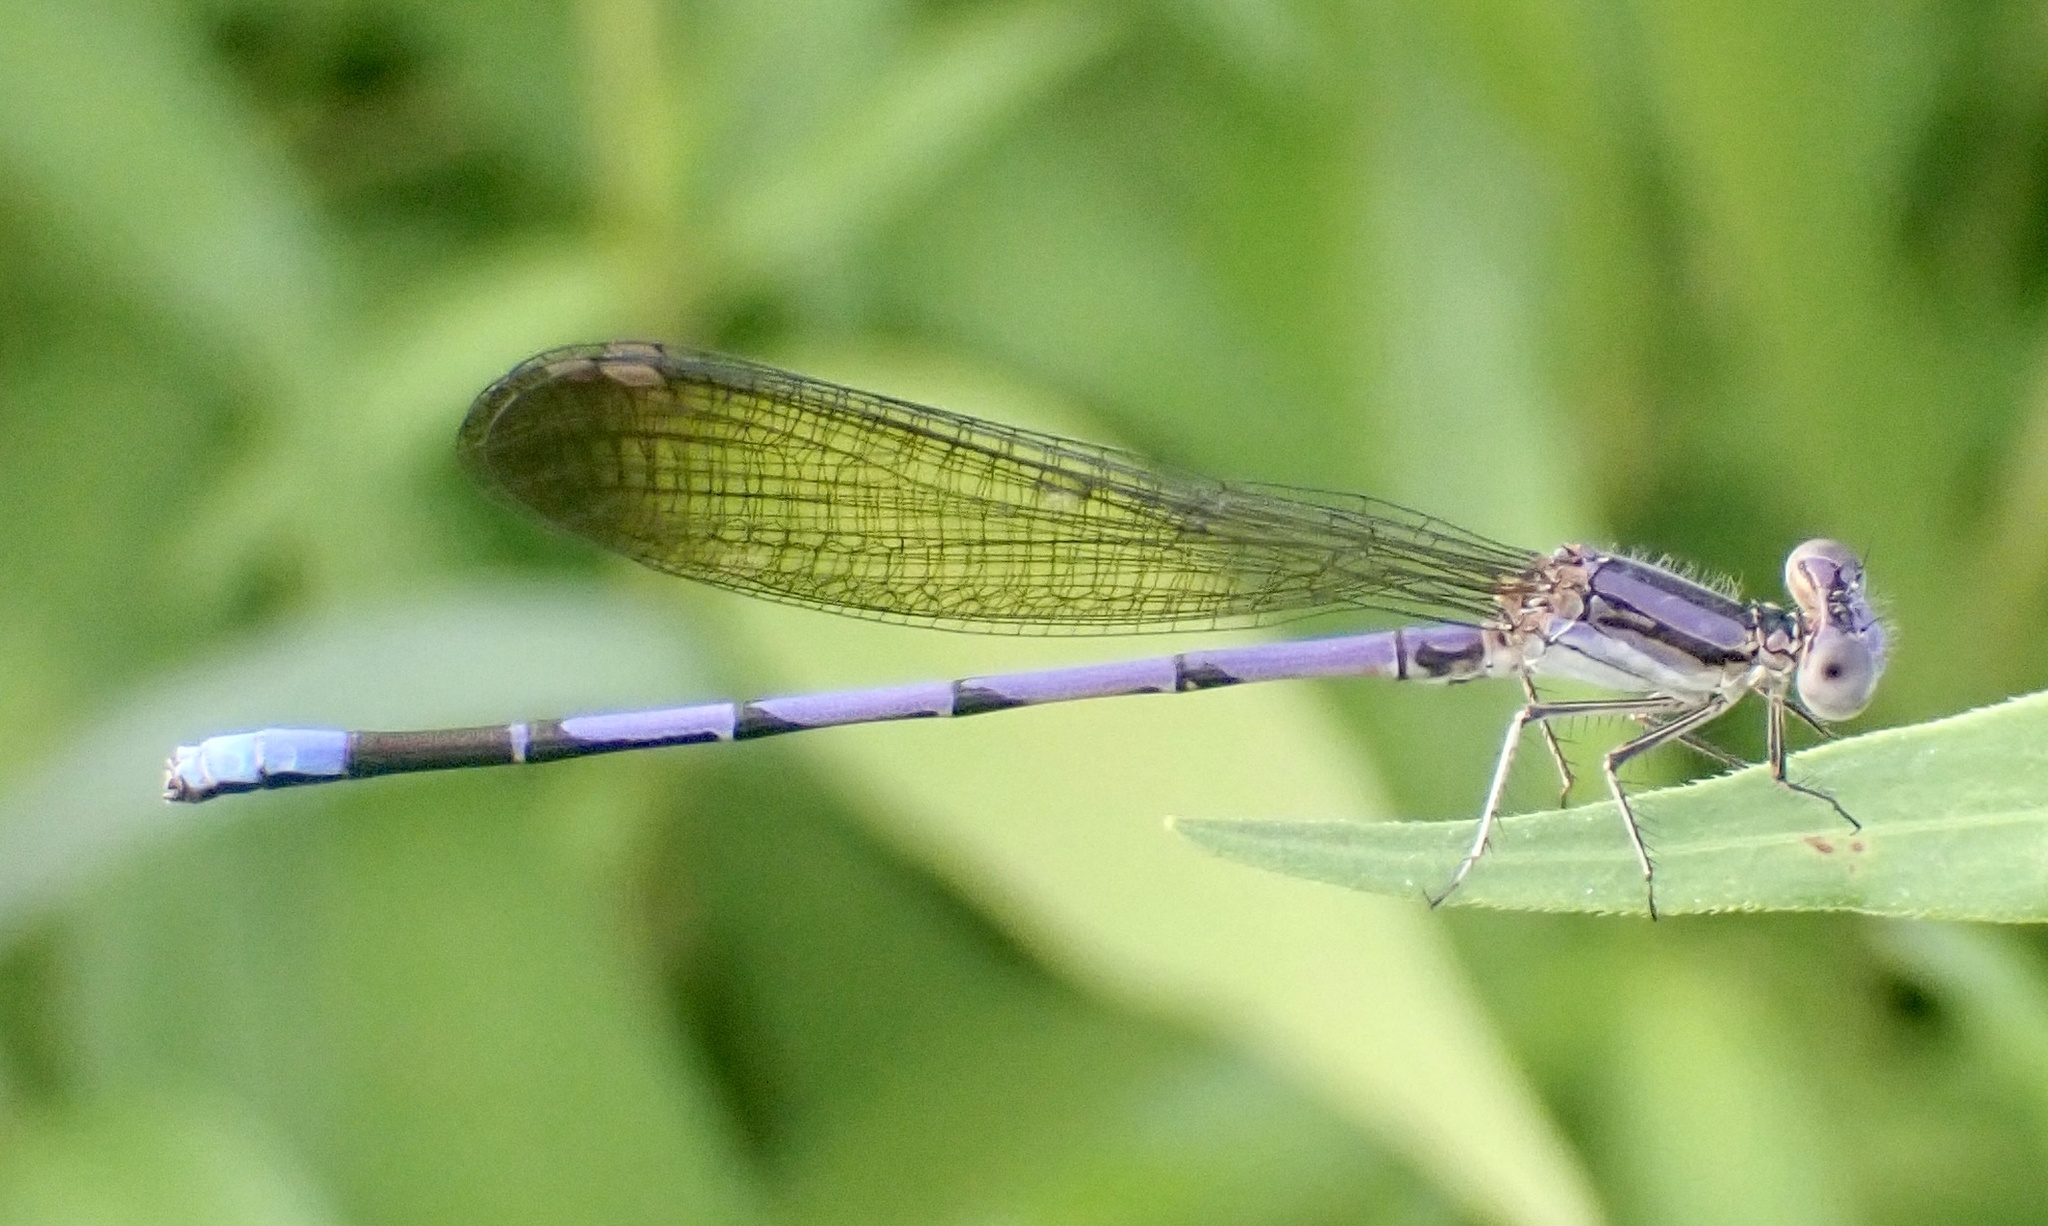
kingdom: Animalia
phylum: Arthropoda
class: Insecta
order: Odonata
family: Coenagrionidae
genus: Argia
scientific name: Argia fumipennis
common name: Variable dancer
